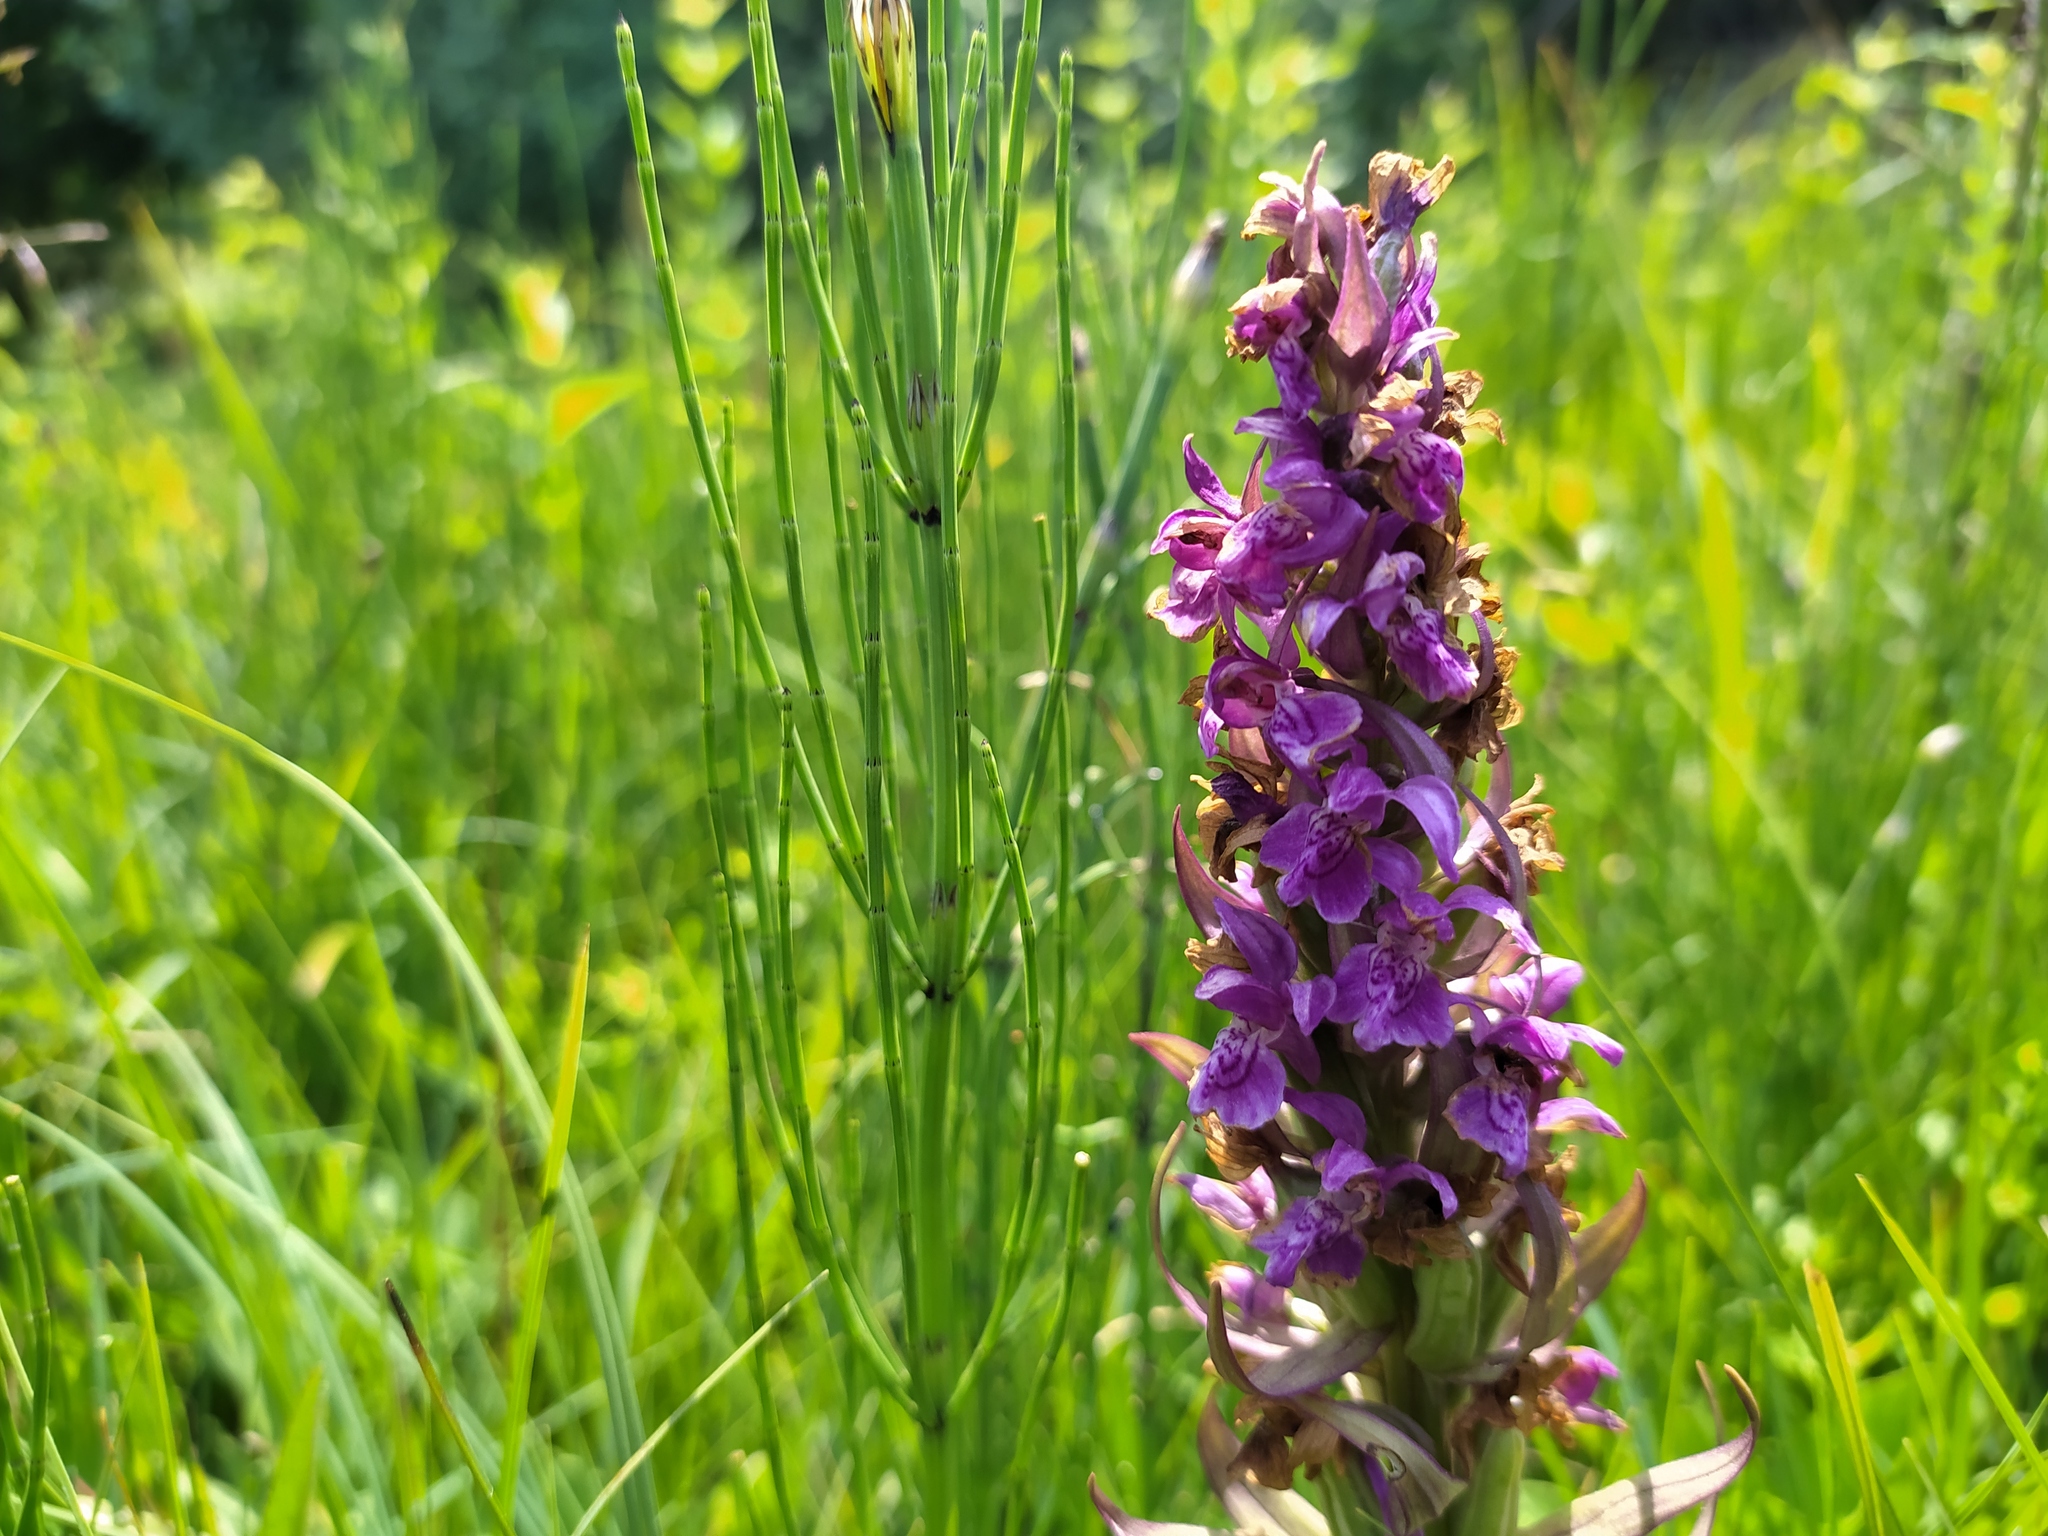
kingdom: Plantae
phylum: Tracheophyta
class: Liliopsida
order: Asparagales
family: Orchidaceae
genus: Dactylorhiza
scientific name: Dactylorhiza majalis
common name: Marsh orchid
